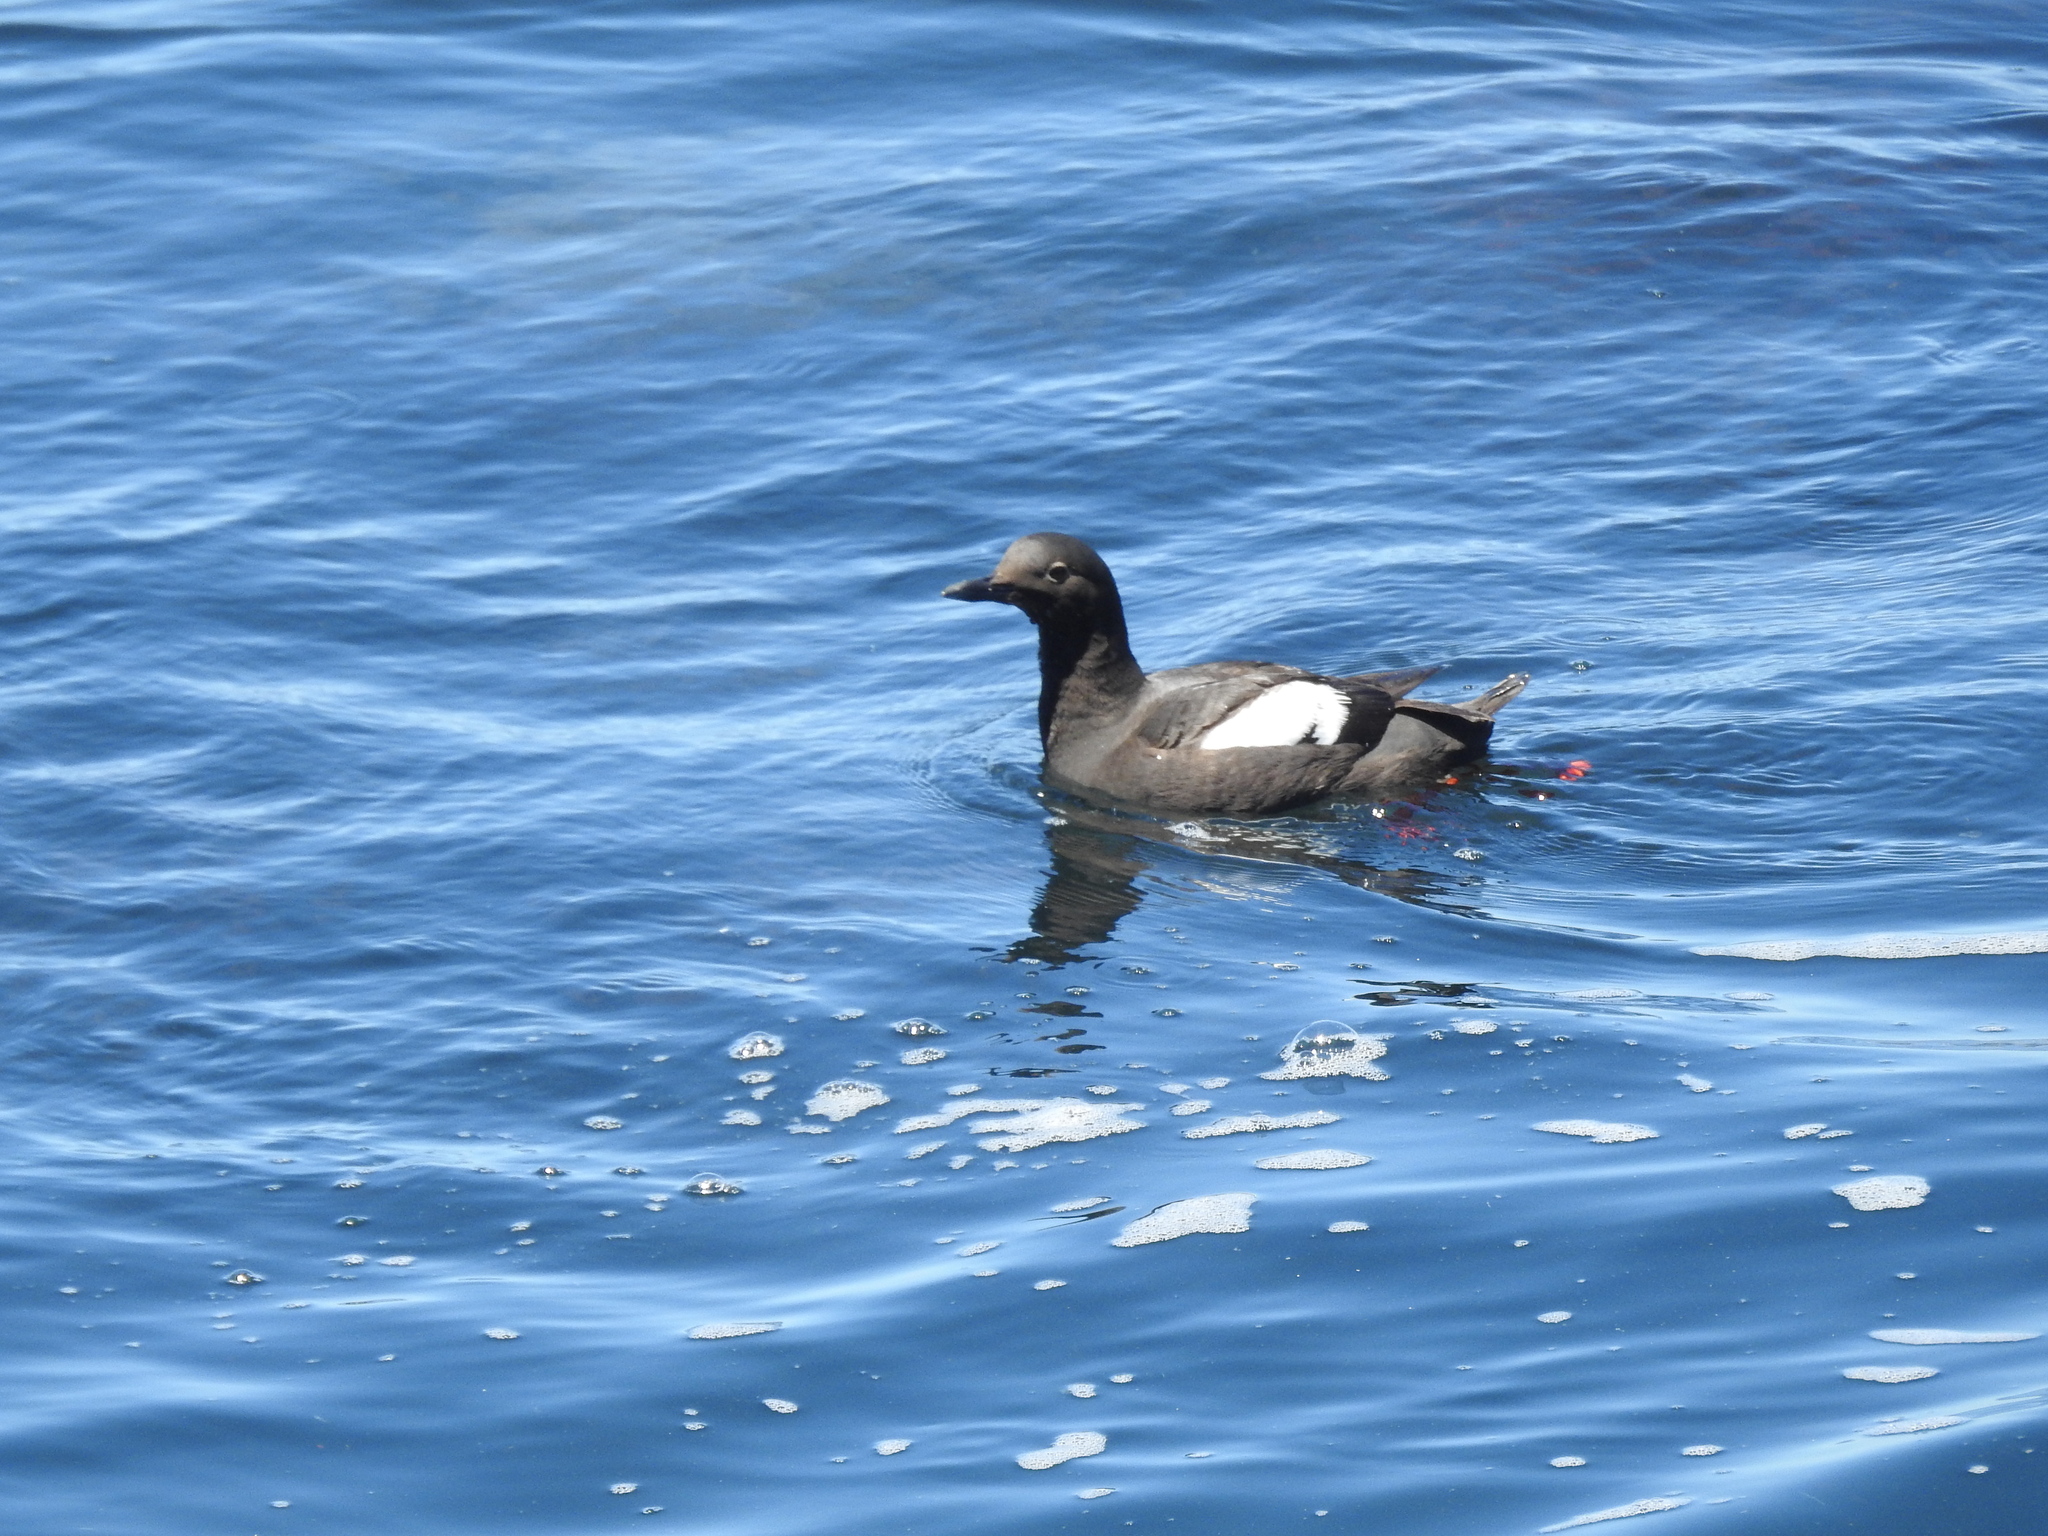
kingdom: Animalia
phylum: Chordata
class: Aves
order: Charadriiformes
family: Alcidae
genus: Cepphus
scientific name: Cepphus columba
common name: Pigeon guillemot
